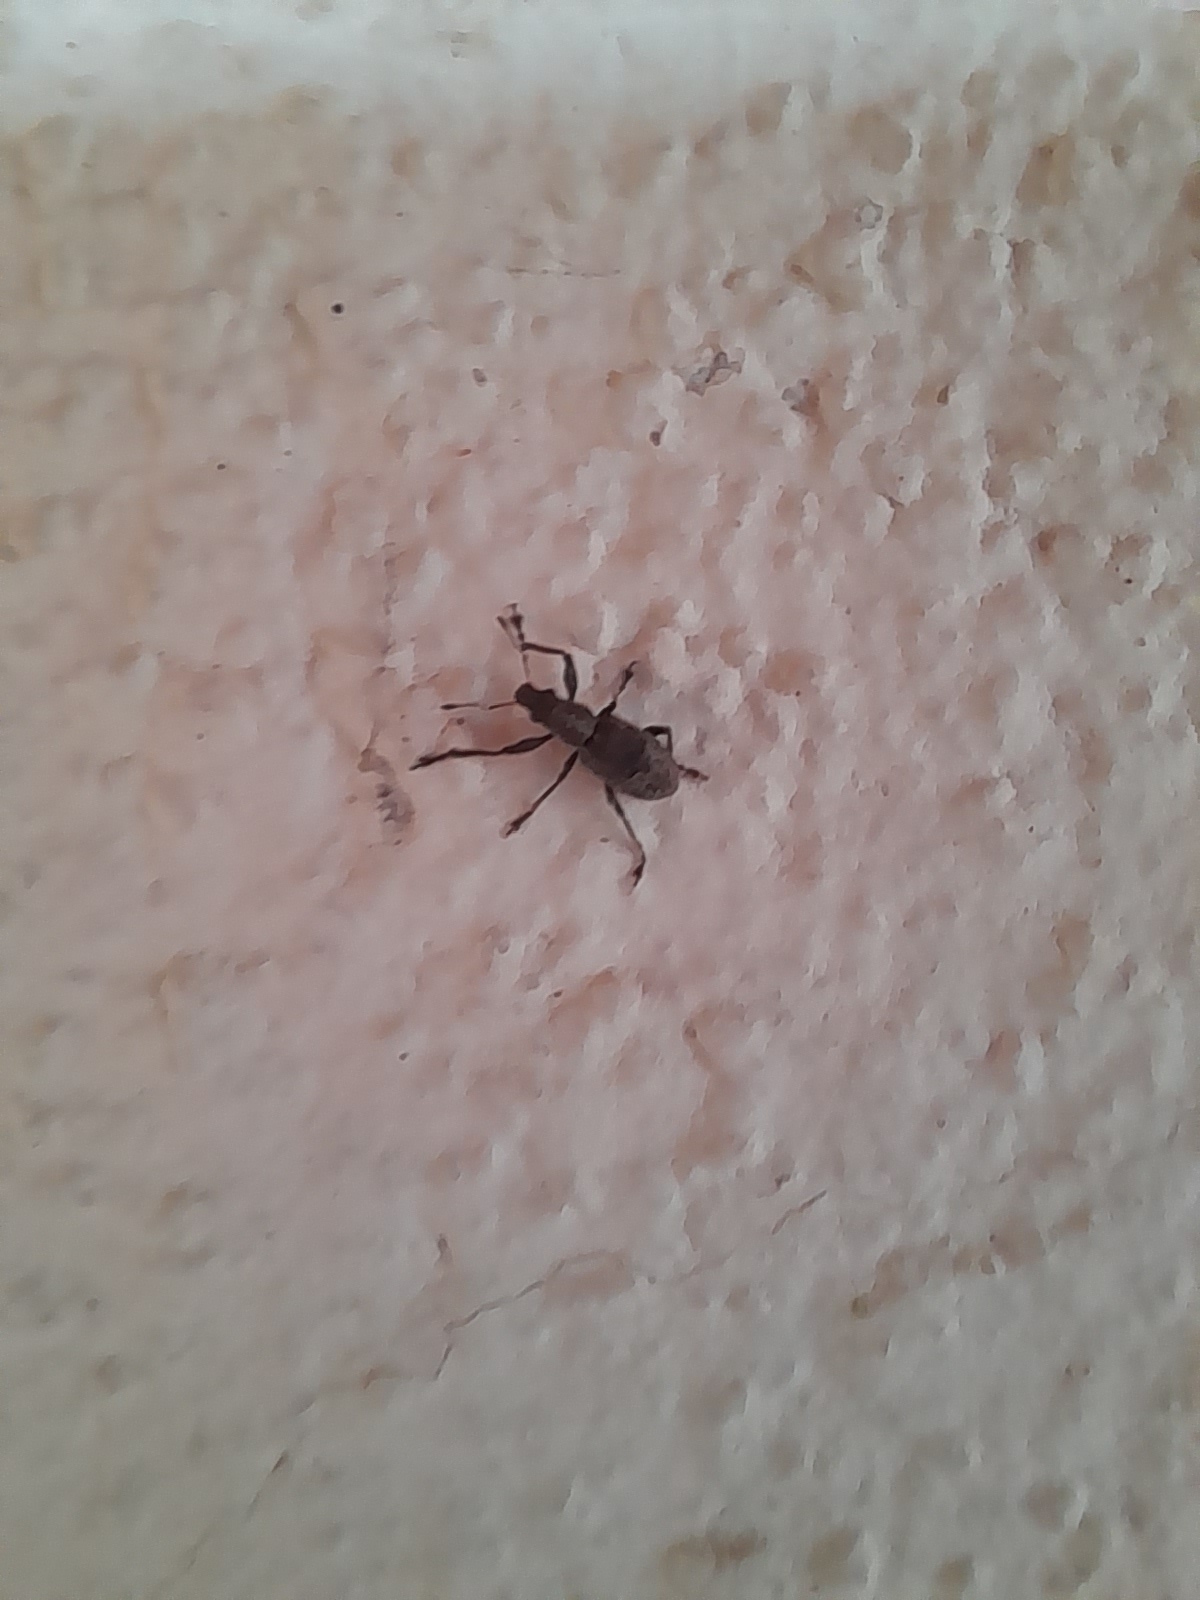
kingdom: Animalia
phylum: Arthropoda
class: Insecta
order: Coleoptera
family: Curculionidae
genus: Coelositona
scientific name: Coelositona limosus
